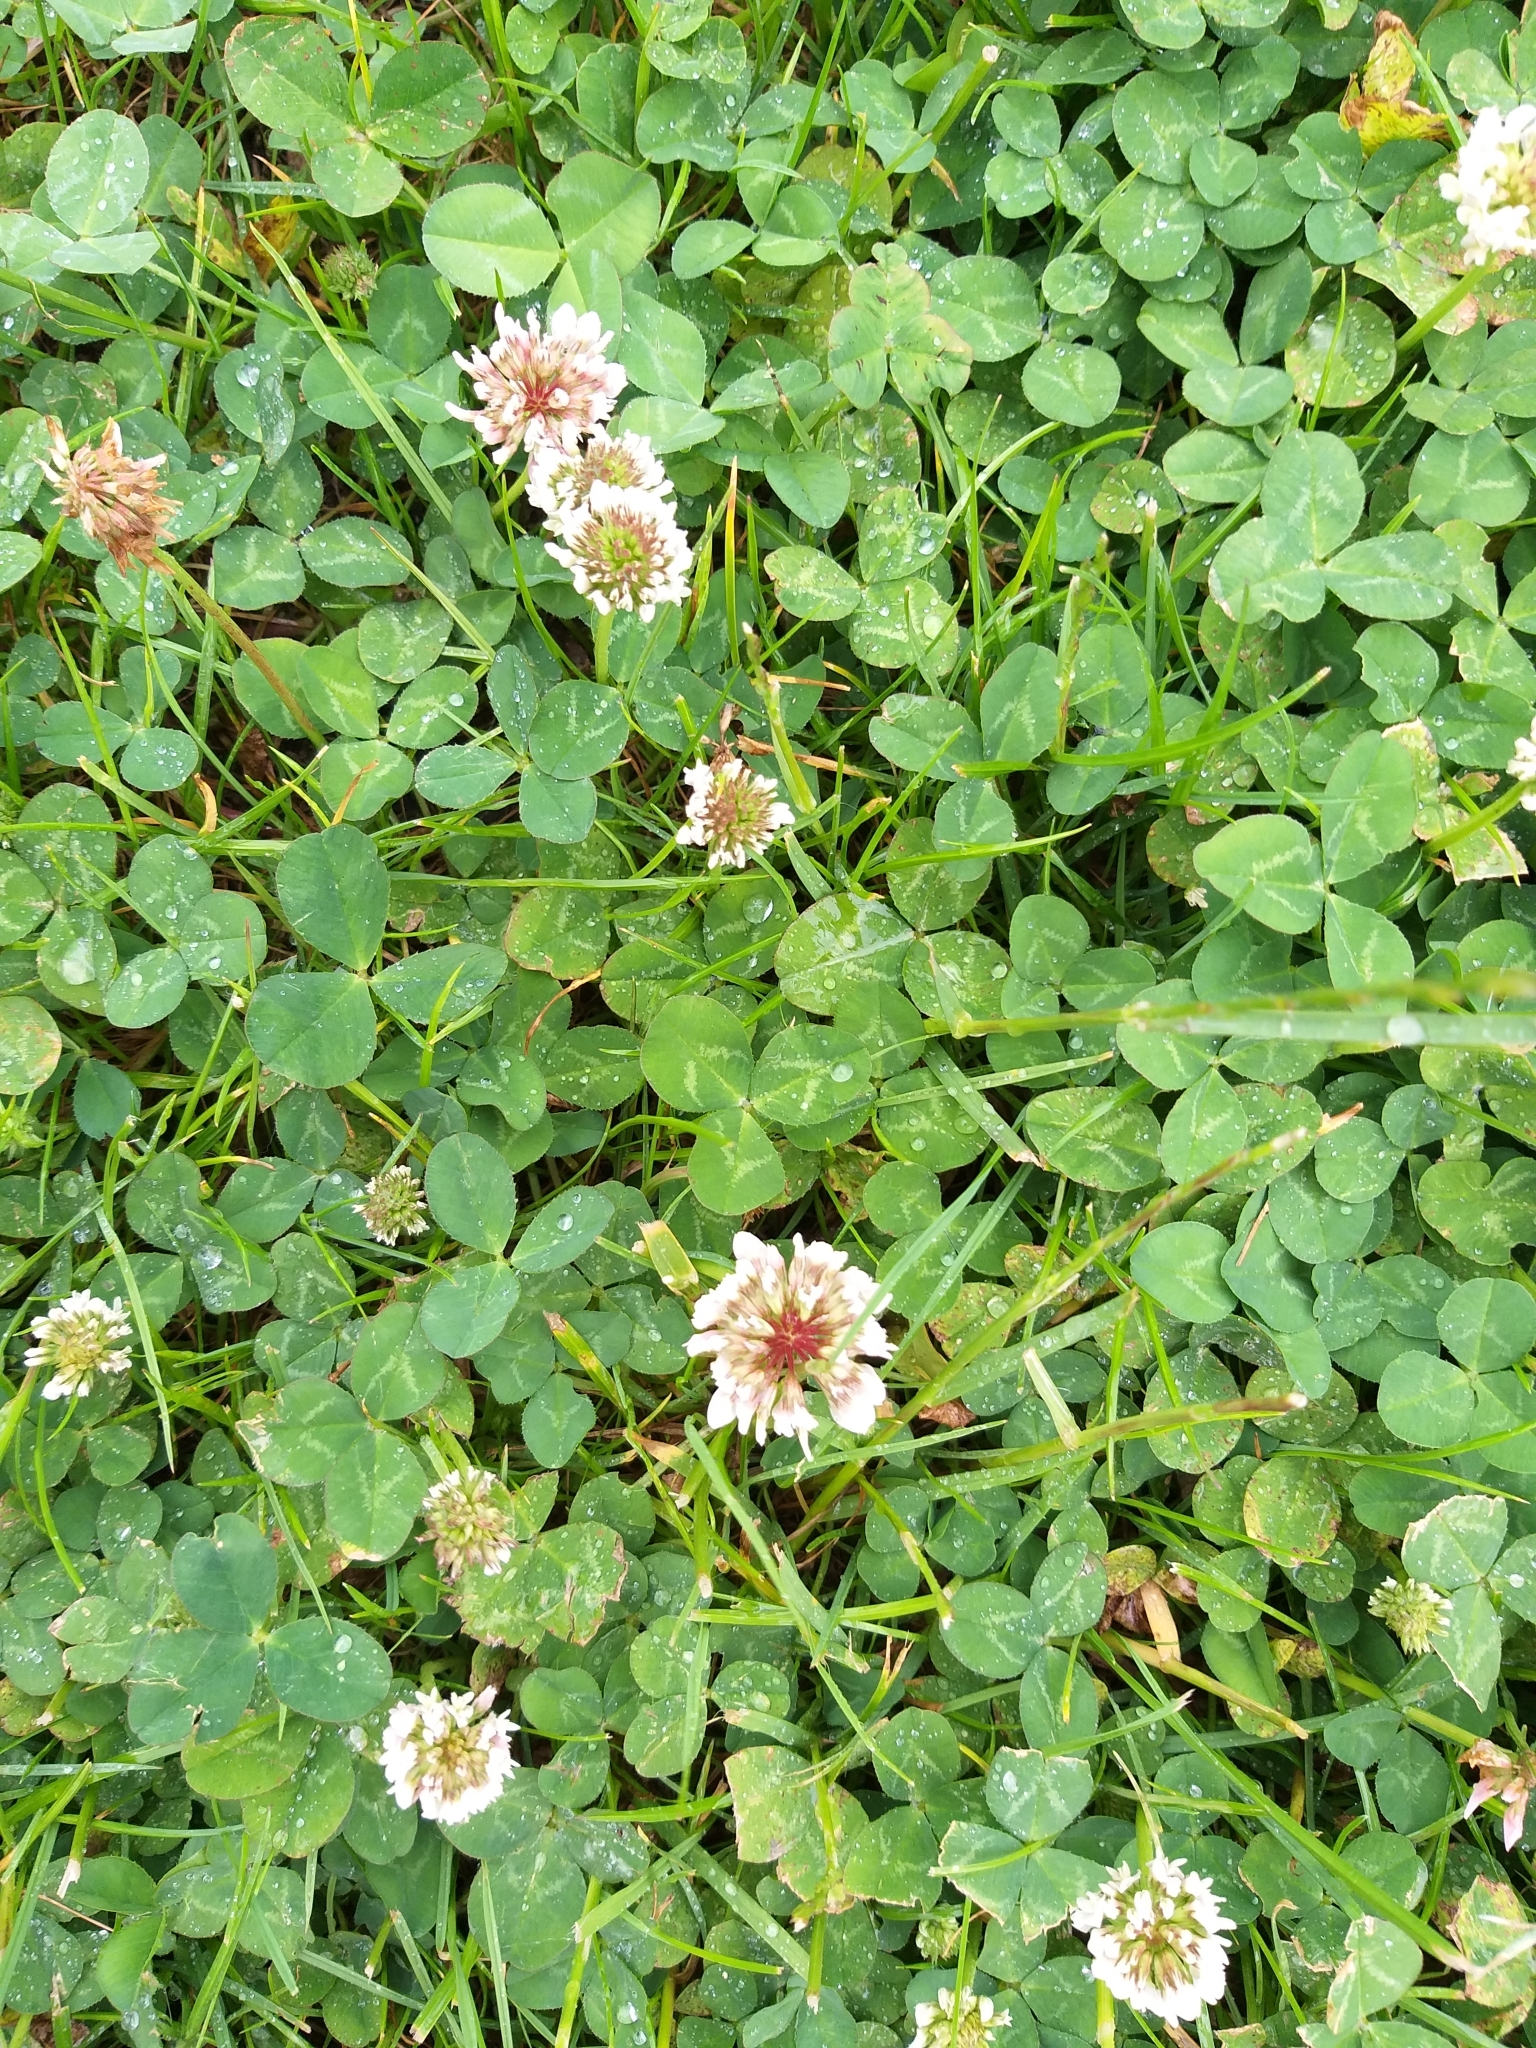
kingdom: Plantae
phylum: Tracheophyta
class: Magnoliopsida
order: Fabales
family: Fabaceae
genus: Trifolium
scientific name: Trifolium repens
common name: White clover
